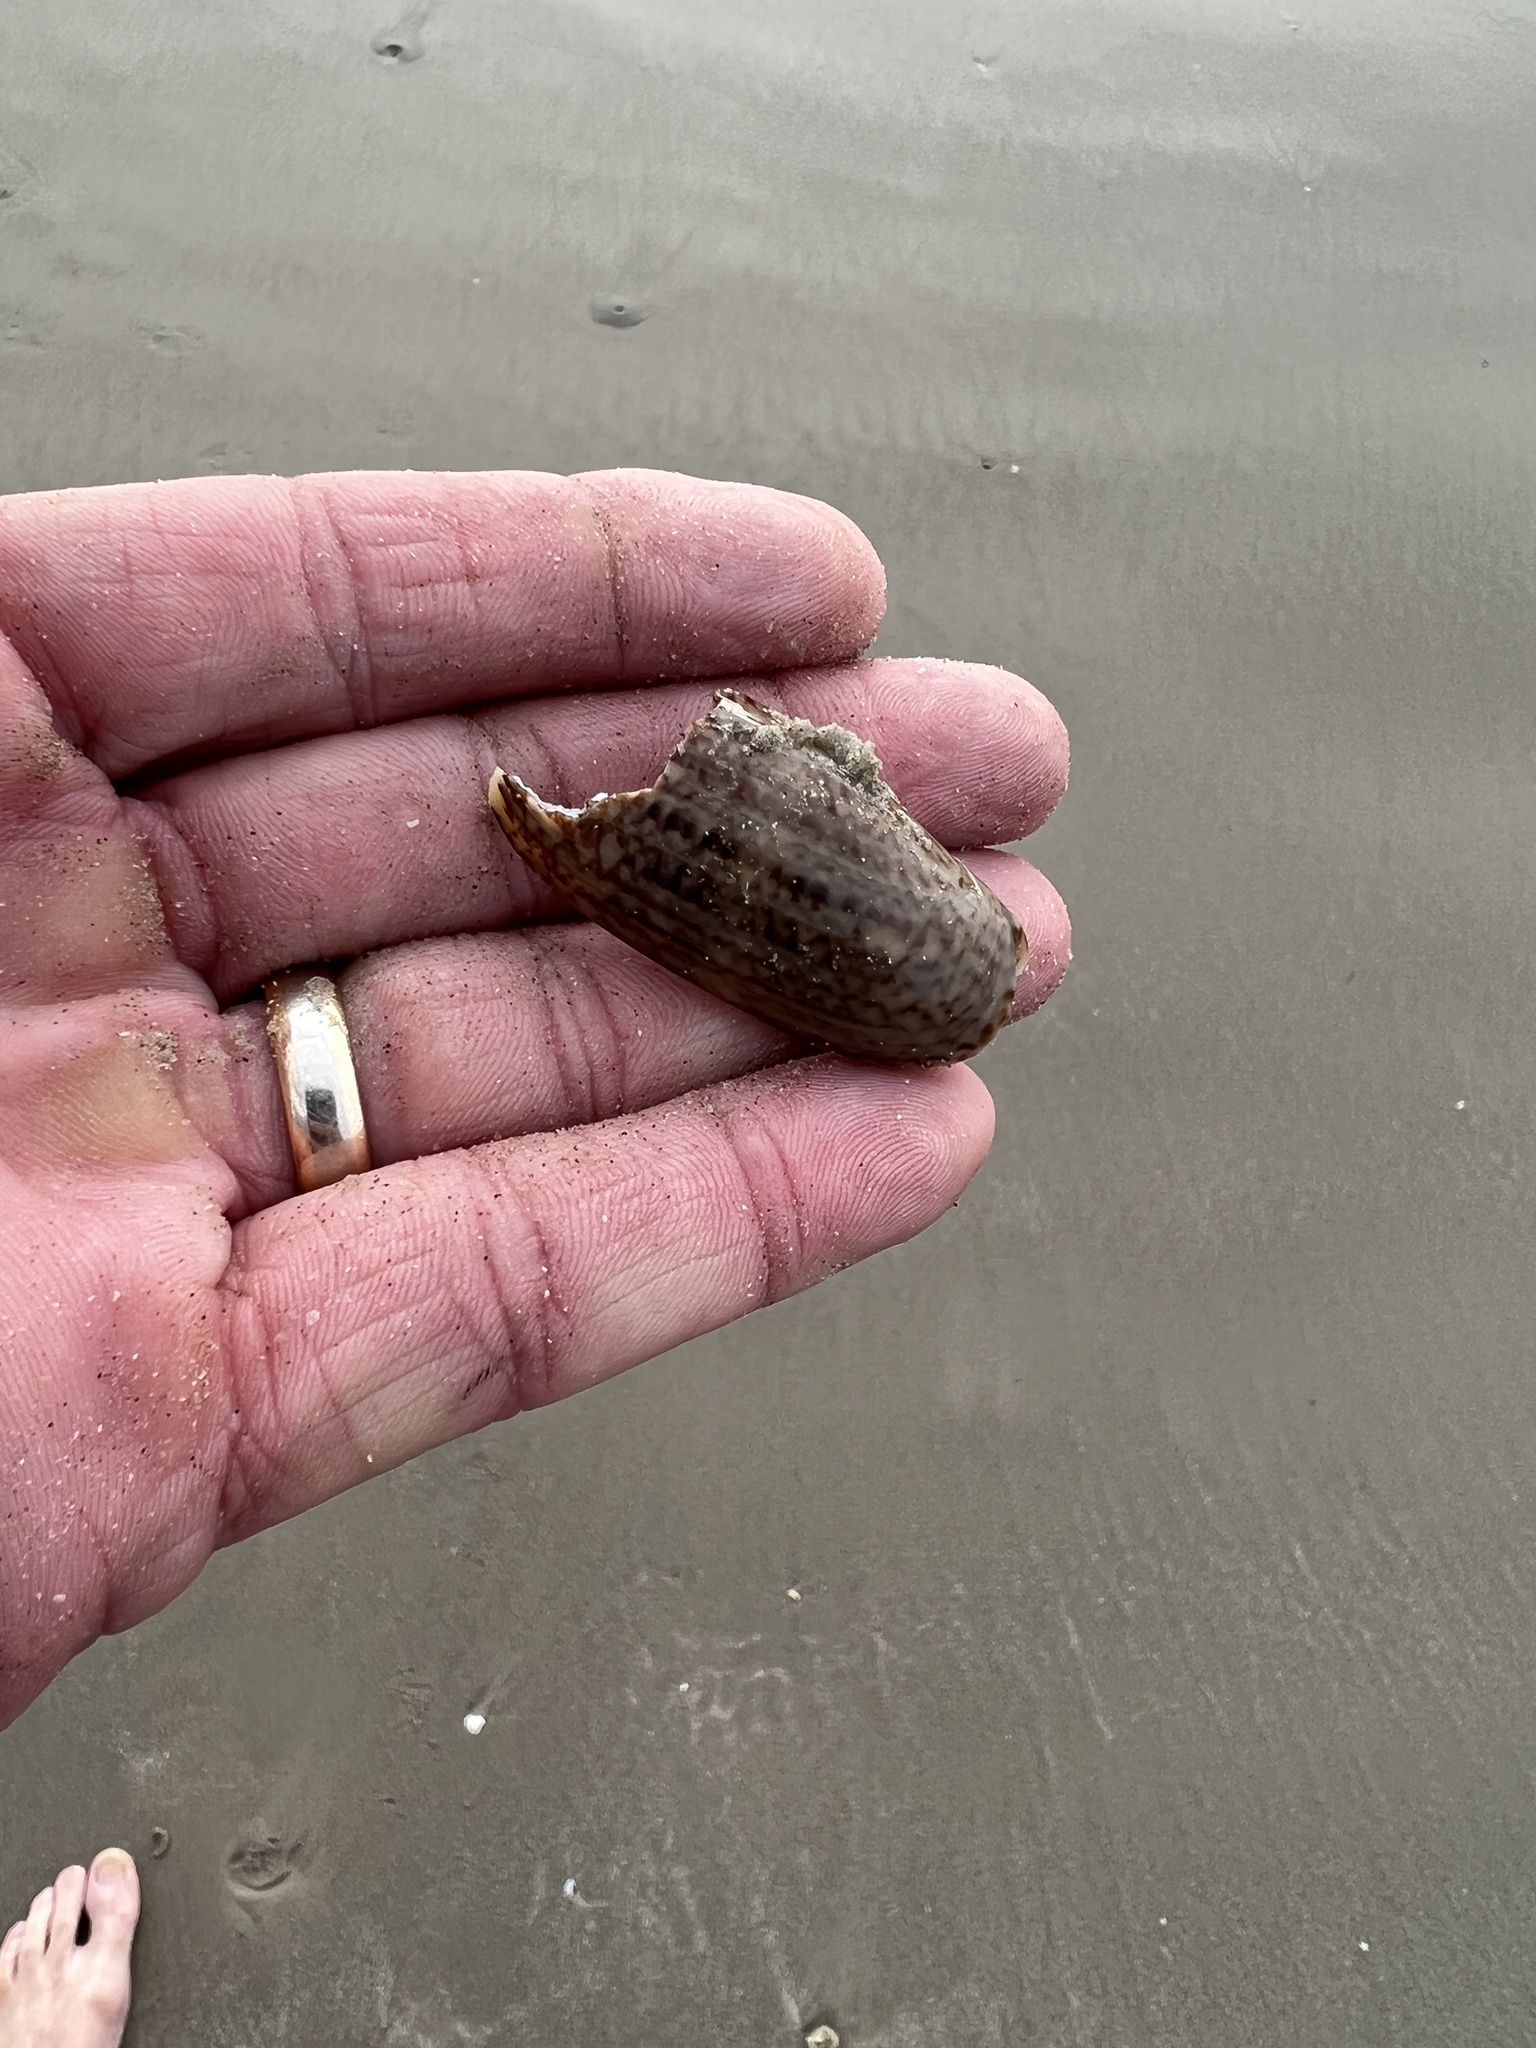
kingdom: Animalia
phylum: Mollusca
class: Gastropoda
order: Neogastropoda
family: Olividae
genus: Oliva
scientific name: Oliva sayana
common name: Lettered olive
